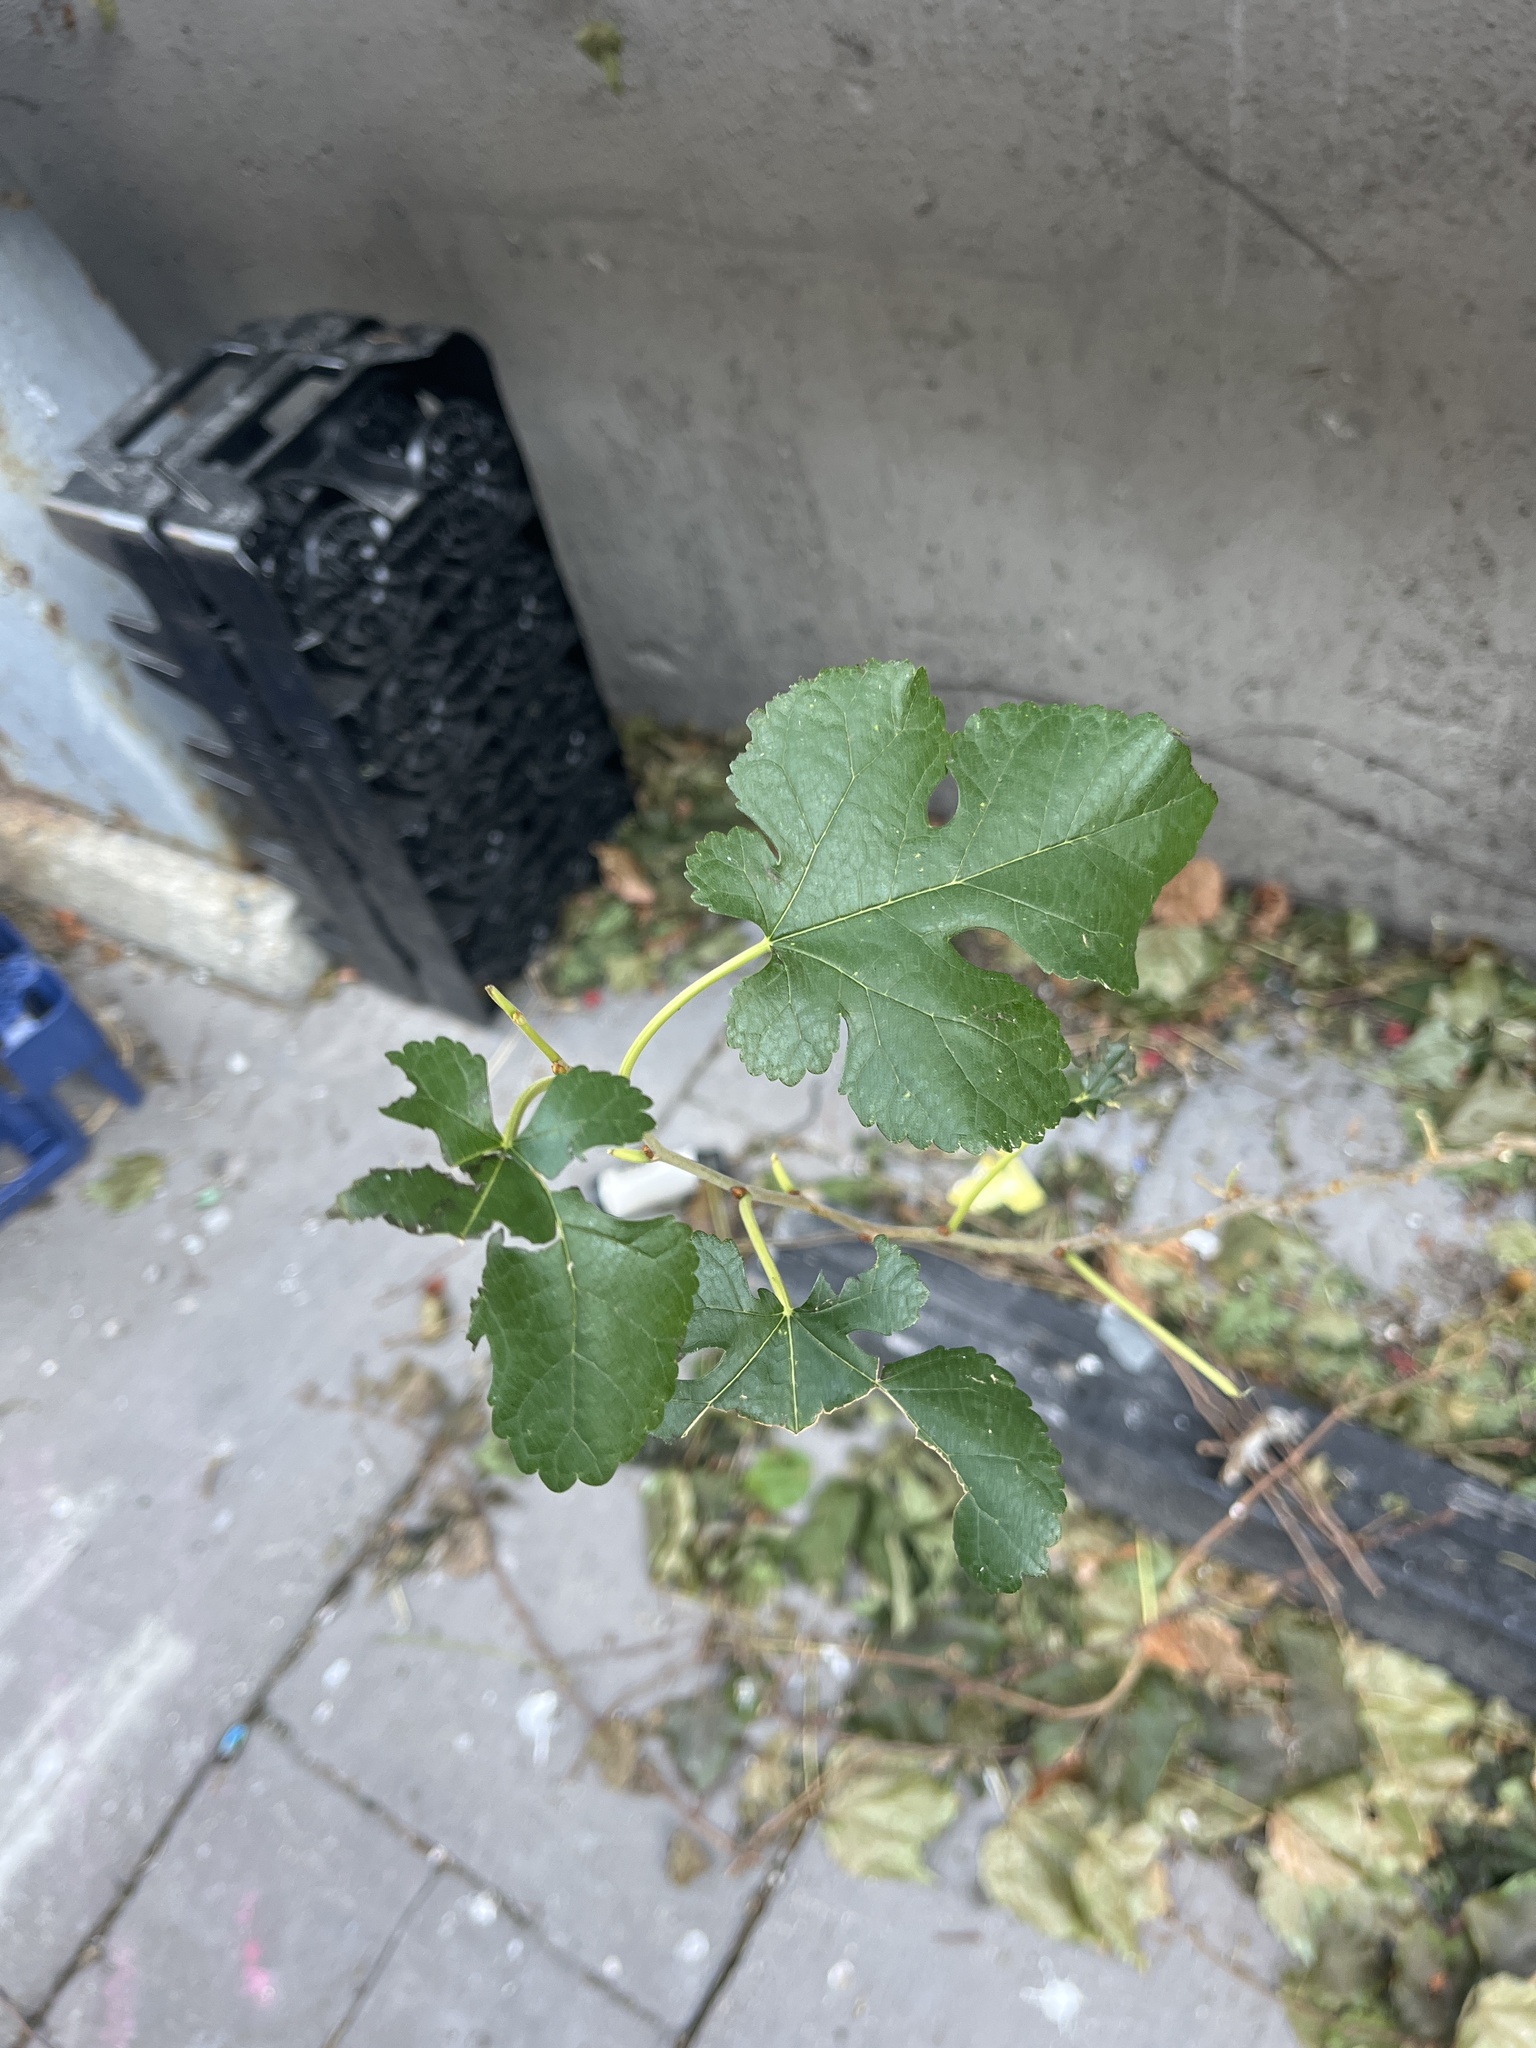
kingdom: Plantae
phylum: Tracheophyta
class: Magnoliopsida
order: Rosales
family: Moraceae
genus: Morus
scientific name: Morus alba
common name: White mulberry
